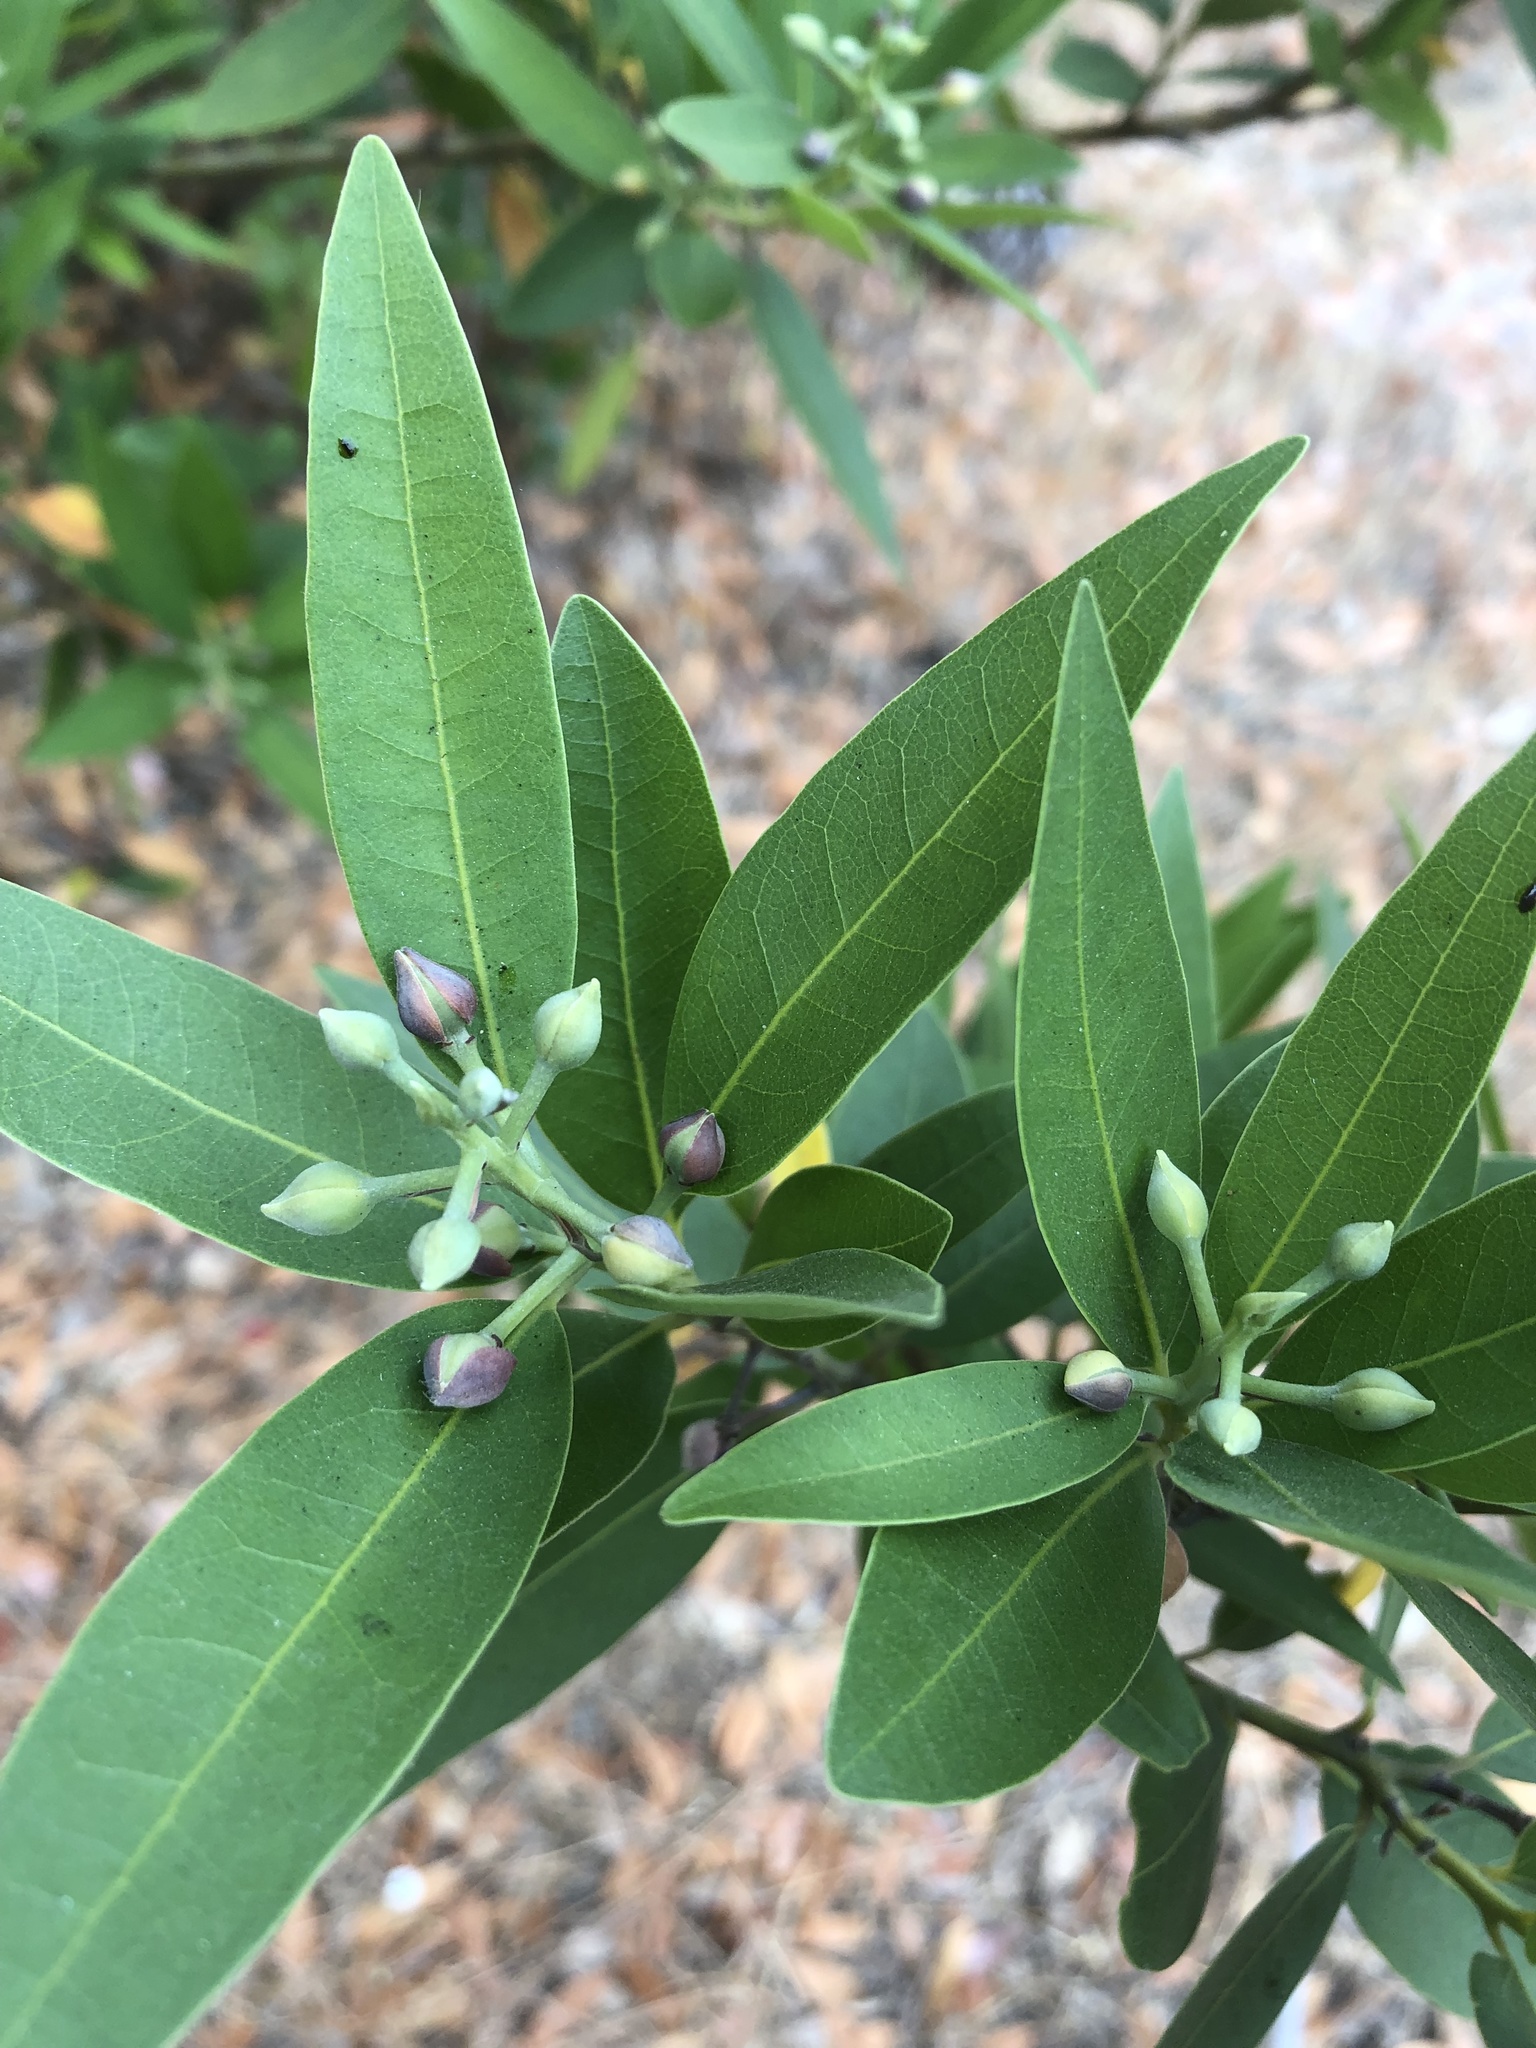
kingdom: Plantae
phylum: Tracheophyta
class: Magnoliopsida
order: Laurales
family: Lauraceae
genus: Umbellularia
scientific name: Umbellularia californica
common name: California bay
